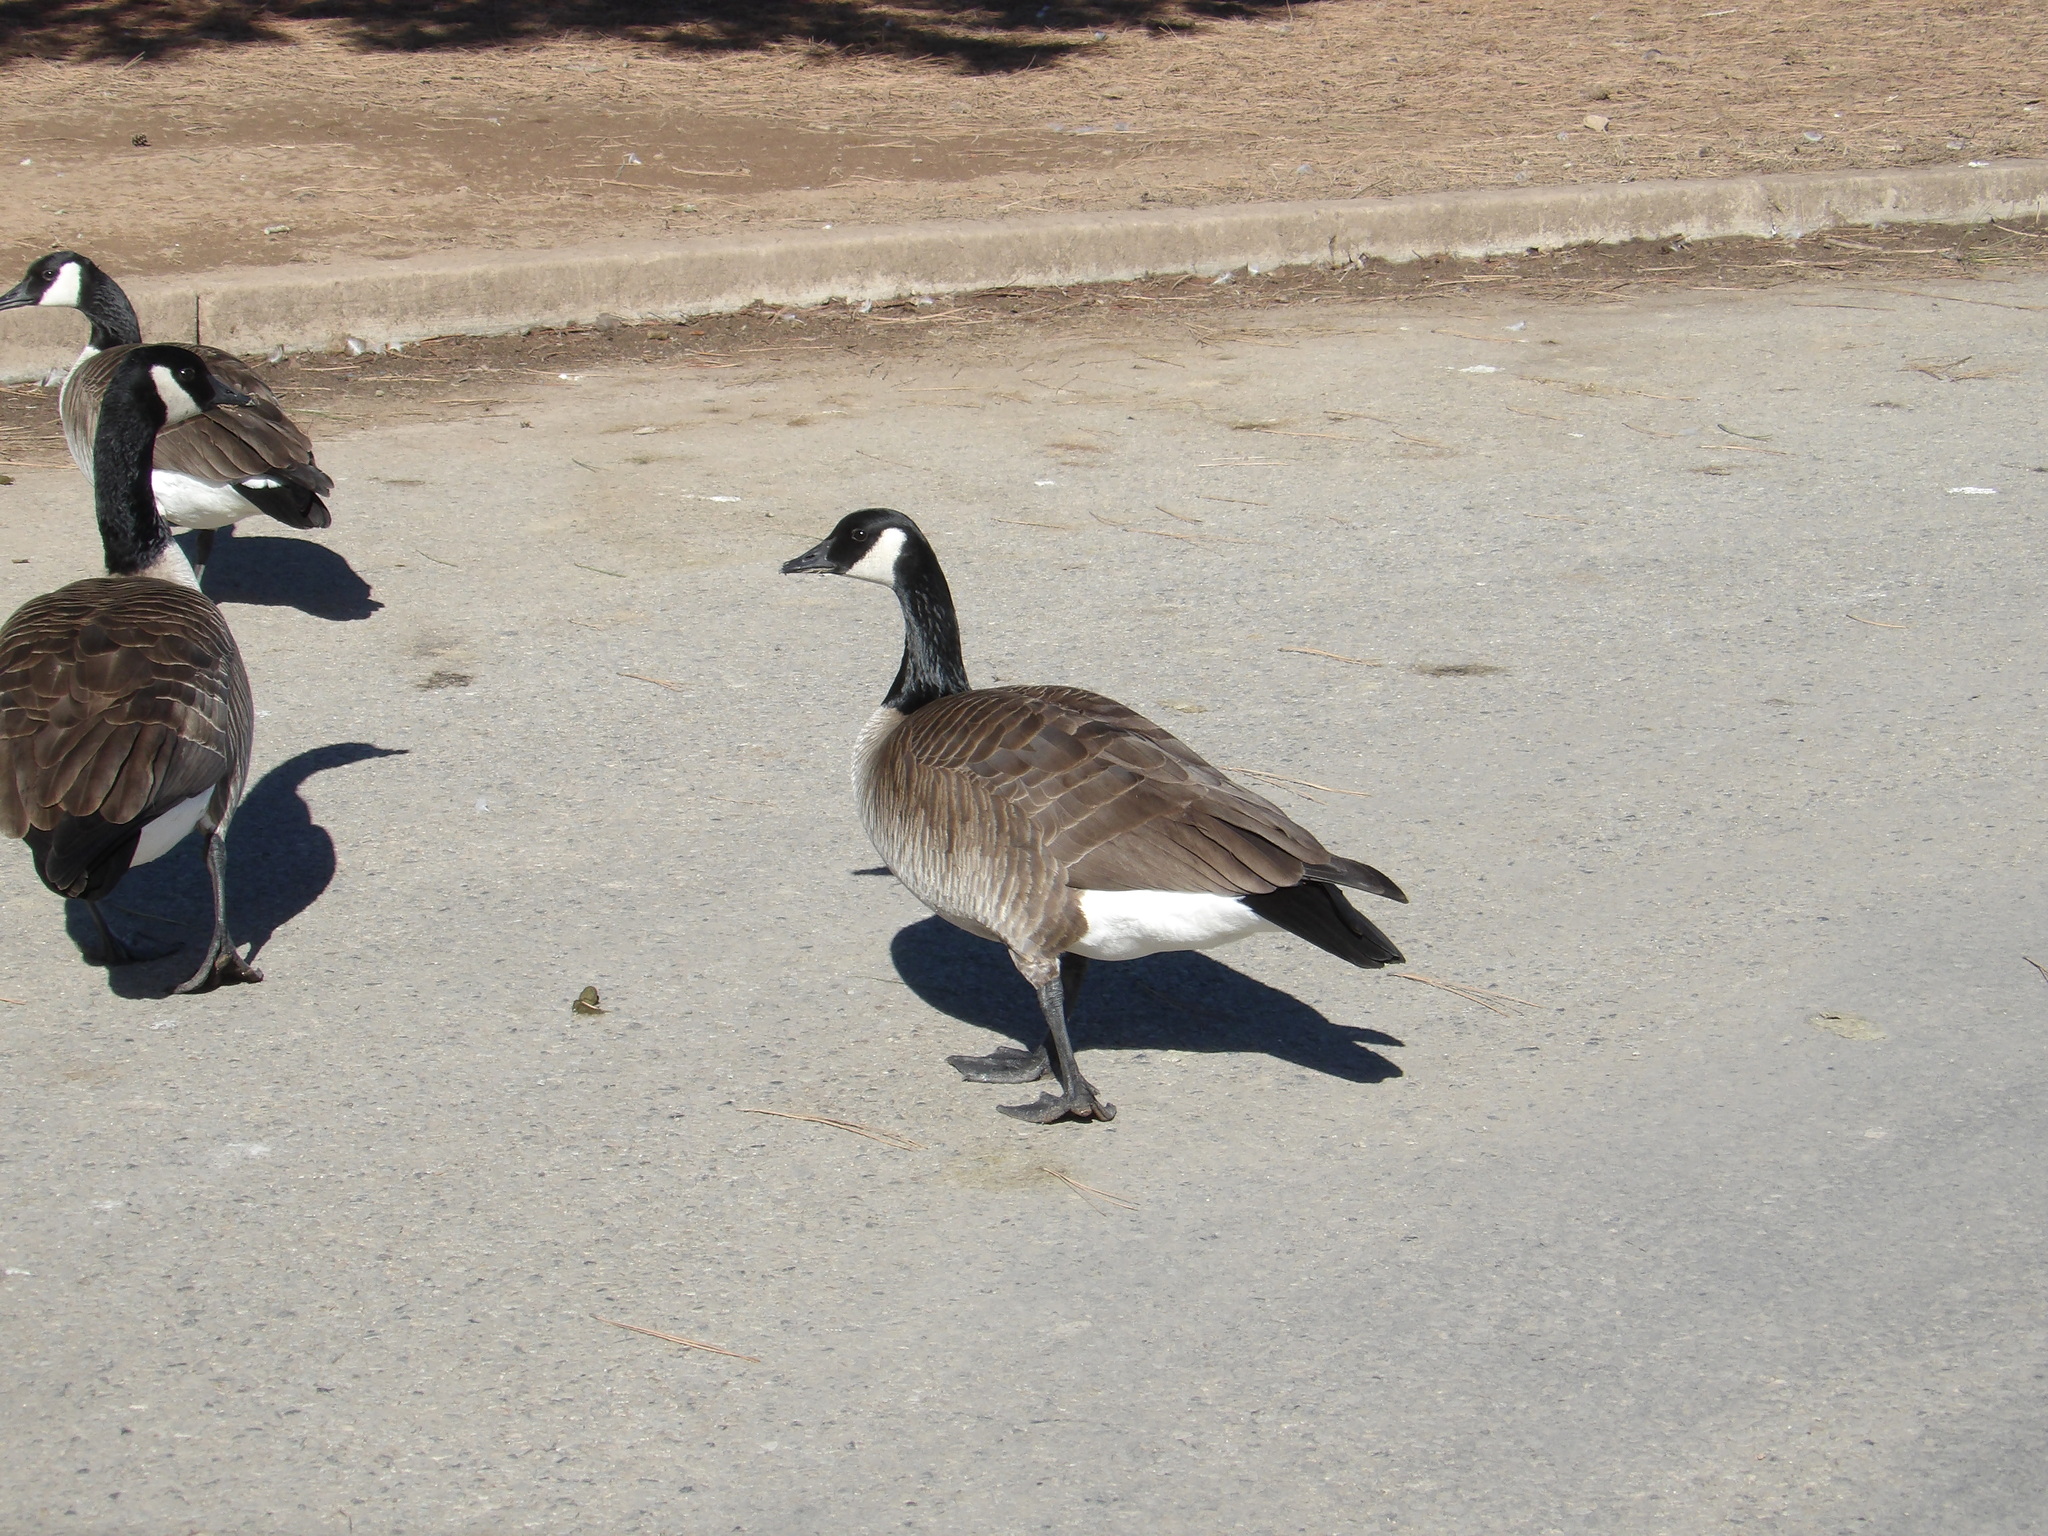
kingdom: Animalia
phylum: Chordata
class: Aves
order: Anseriformes
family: Anatidae
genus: Branta
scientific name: Branta canadensis
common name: Canada goose
